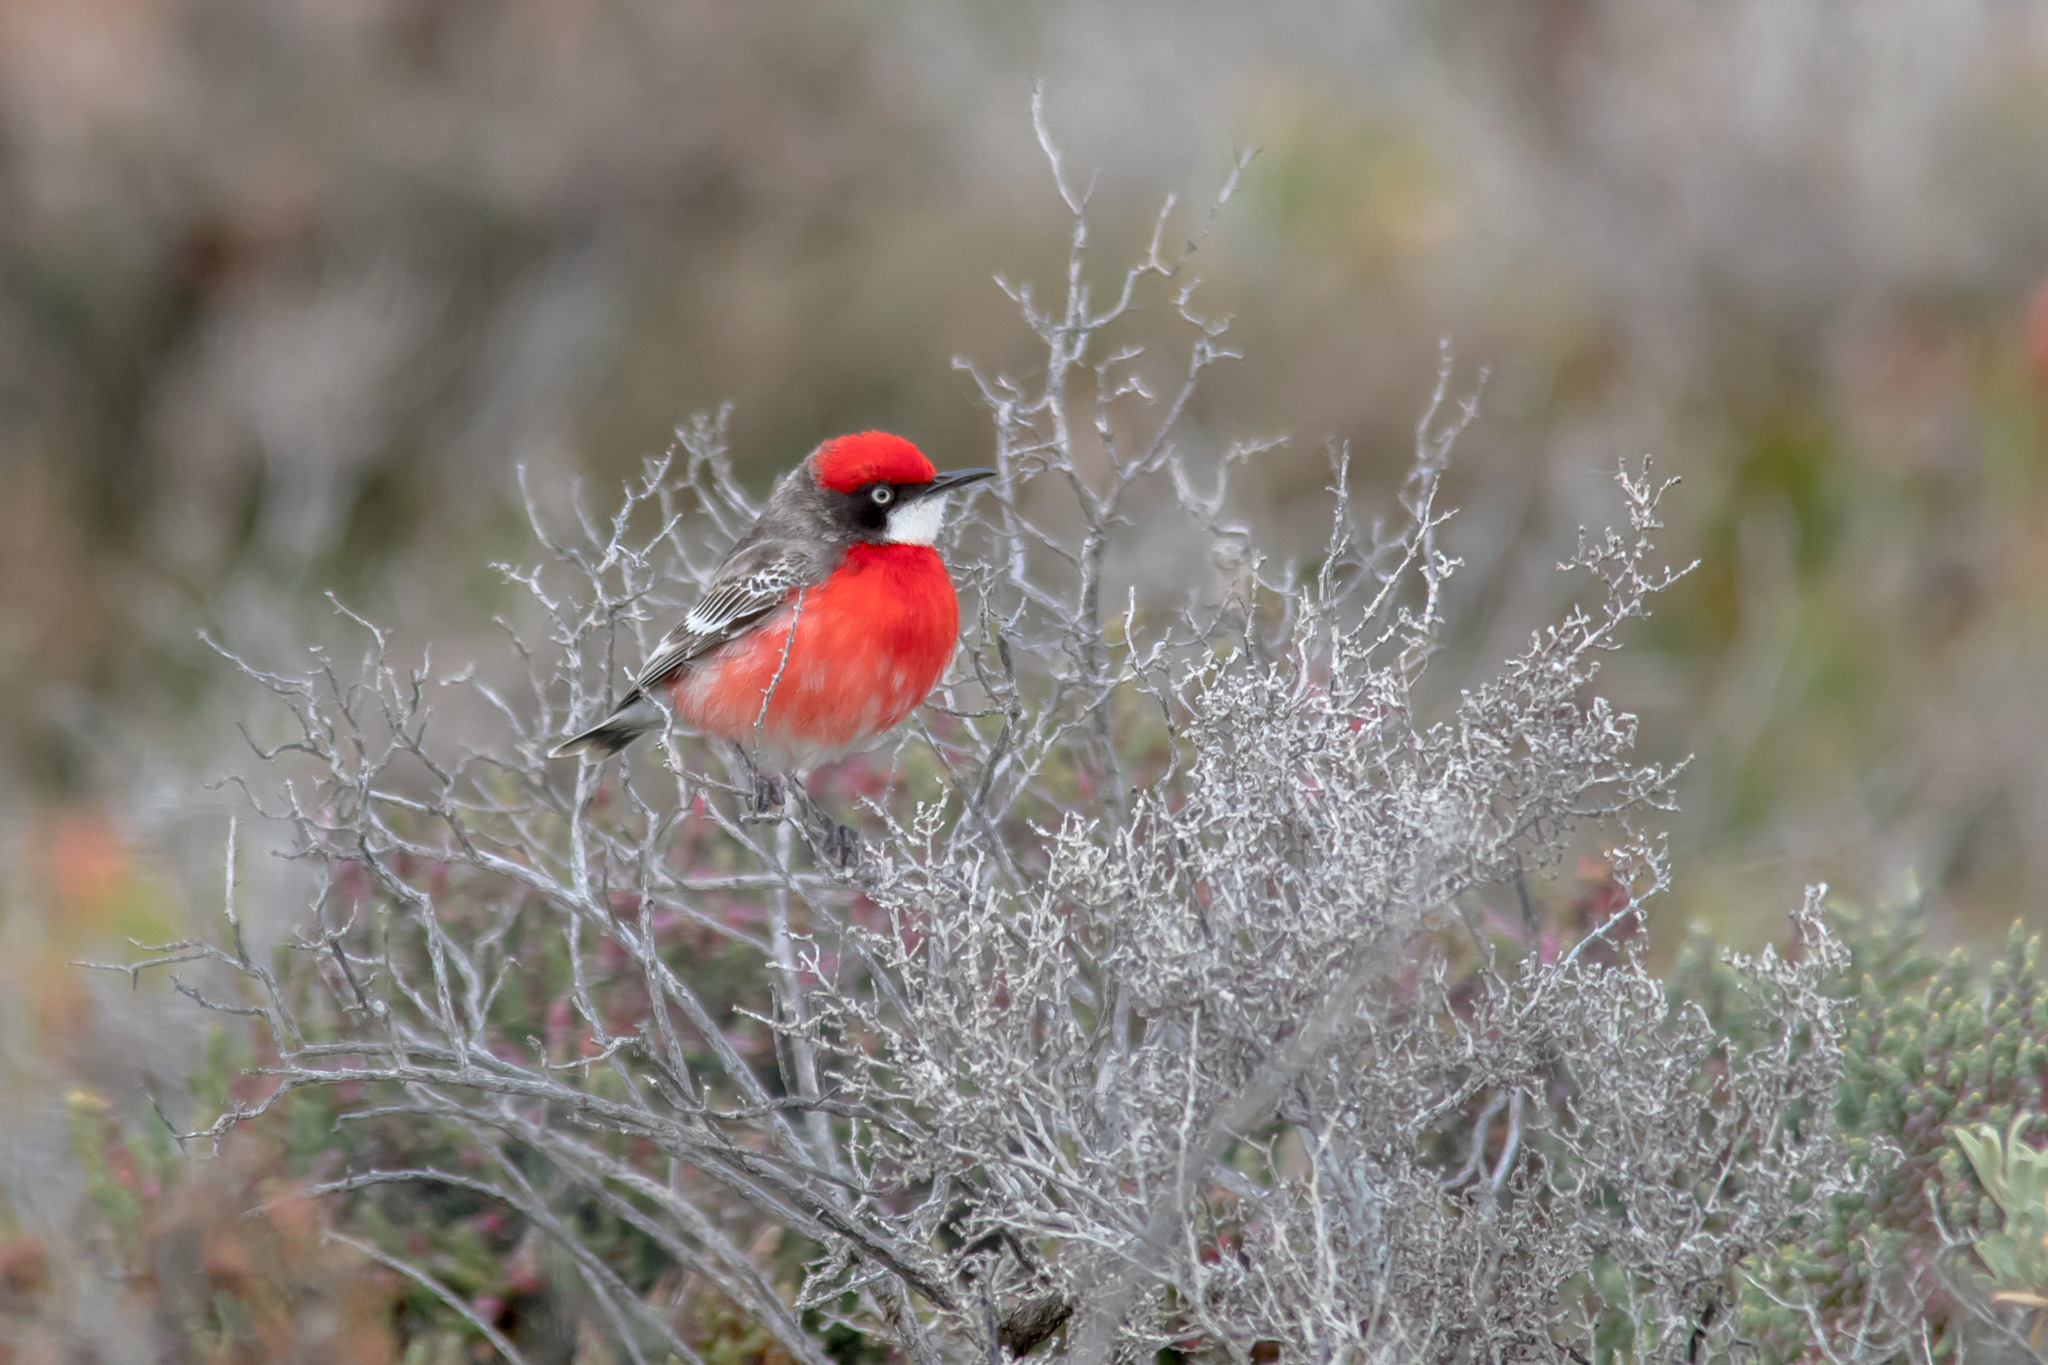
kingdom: Animalia
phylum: Chordata
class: Aves
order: Passeriformes
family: Meliphagidae
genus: Epthianura
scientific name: Epthianura tricolor
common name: Crimson chat
